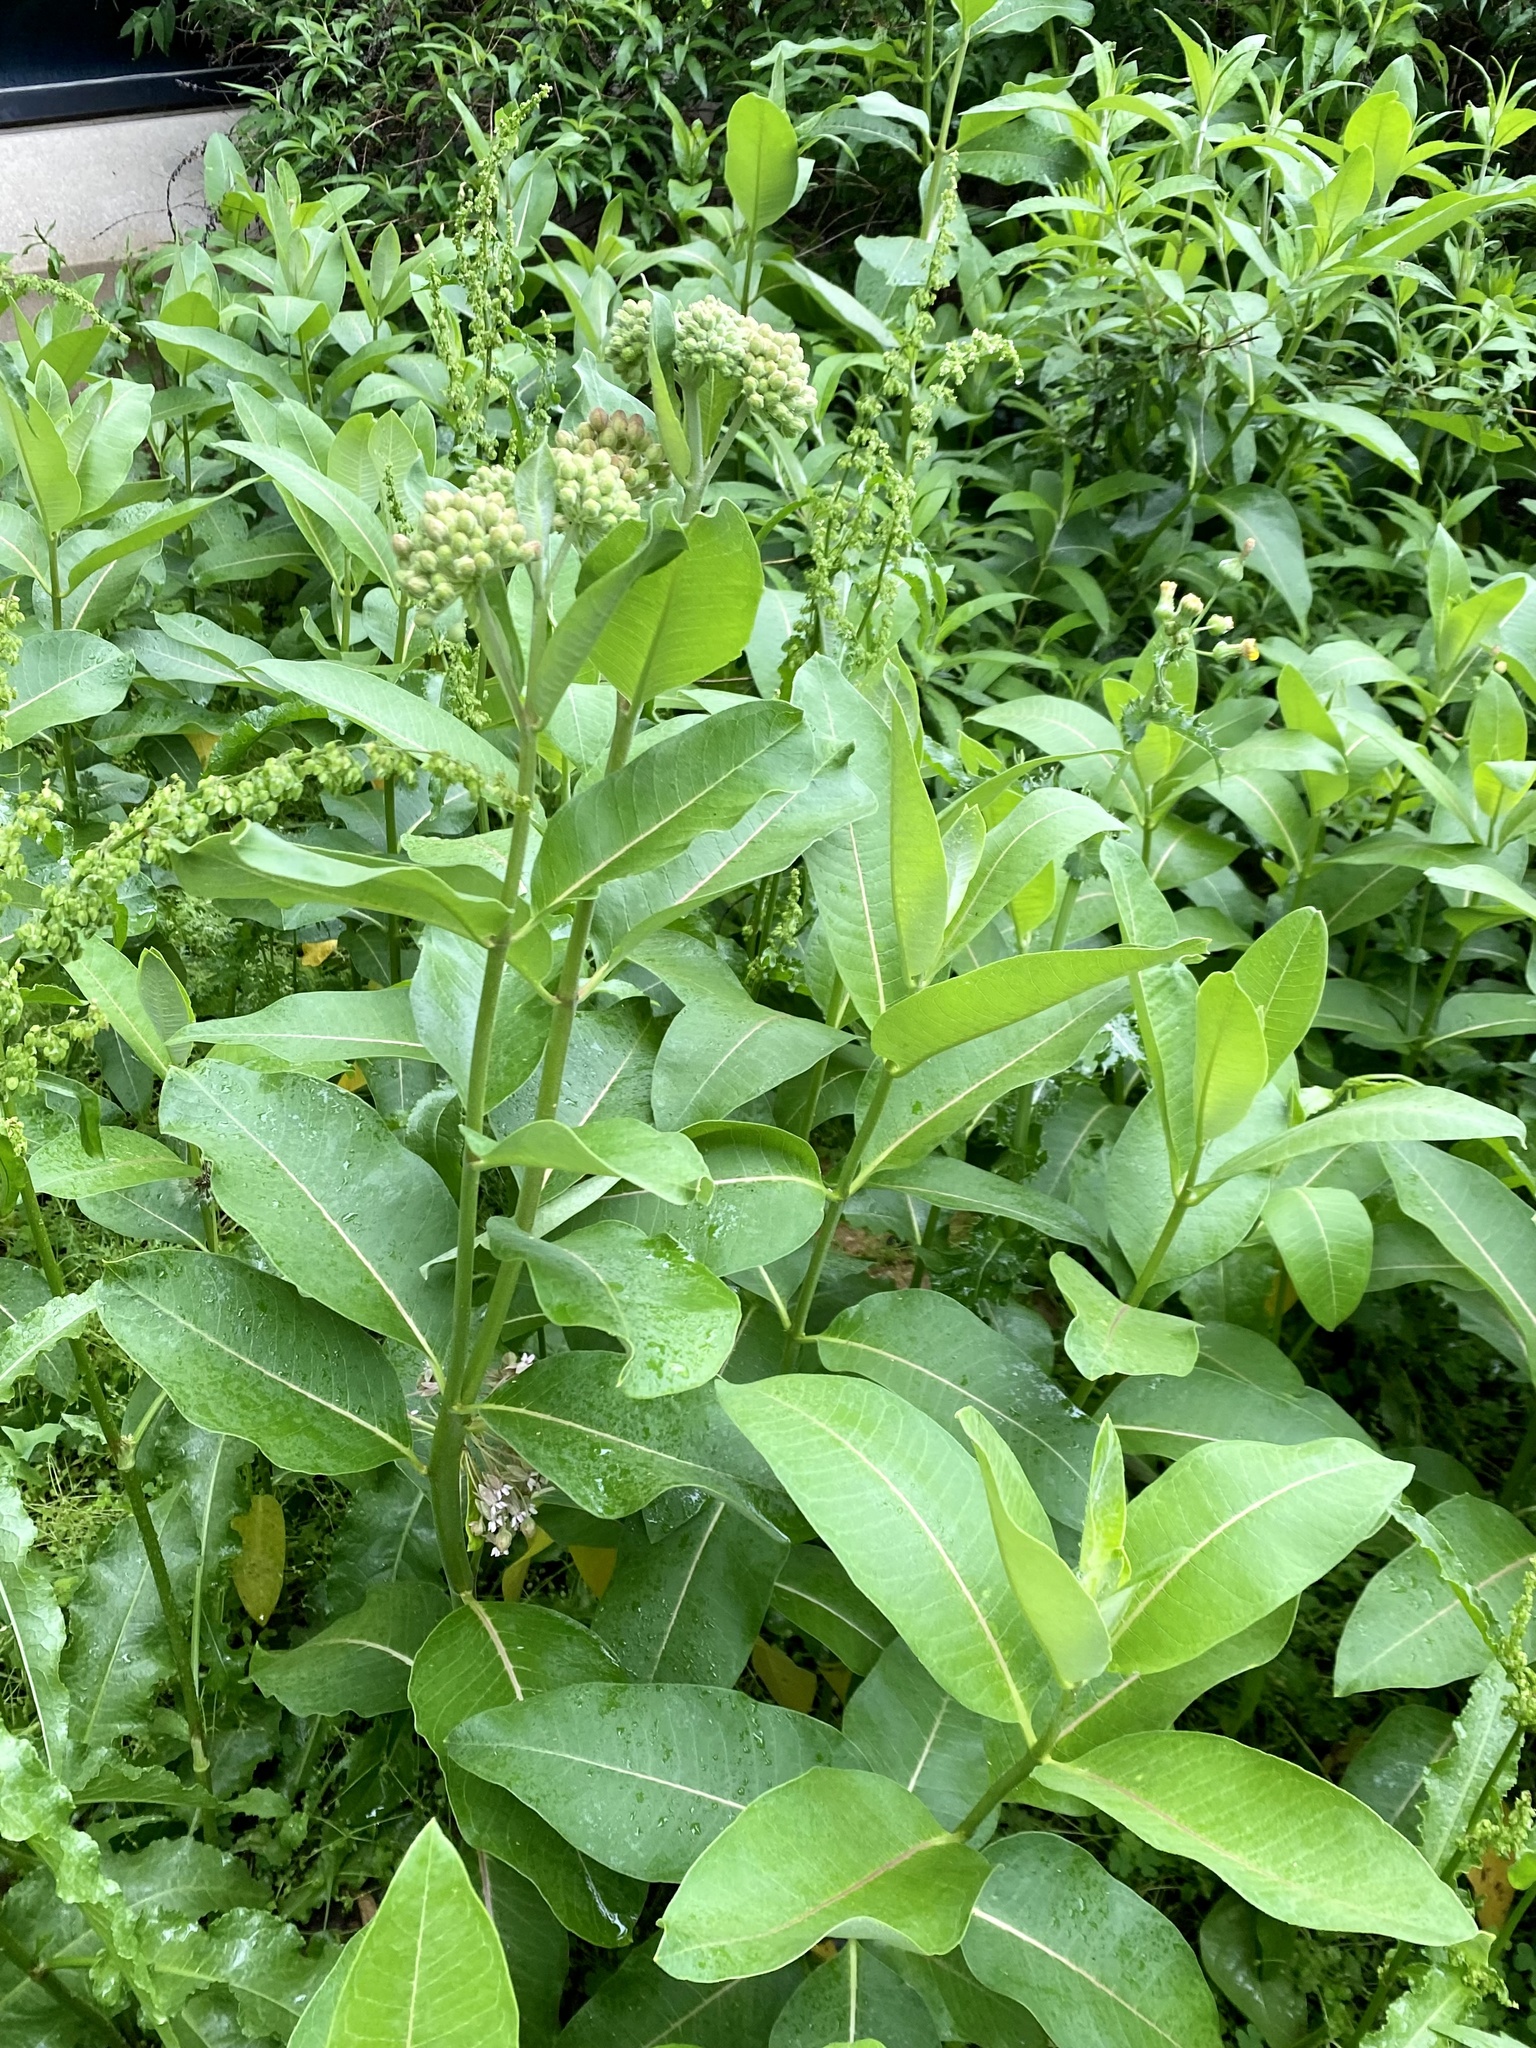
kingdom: Plantae
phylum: Tracheophyta
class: Magnoliopsida
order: Gentianales
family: Apocynaceae
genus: Asclepias
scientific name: Asclepias syriaca
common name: Common milkweed
